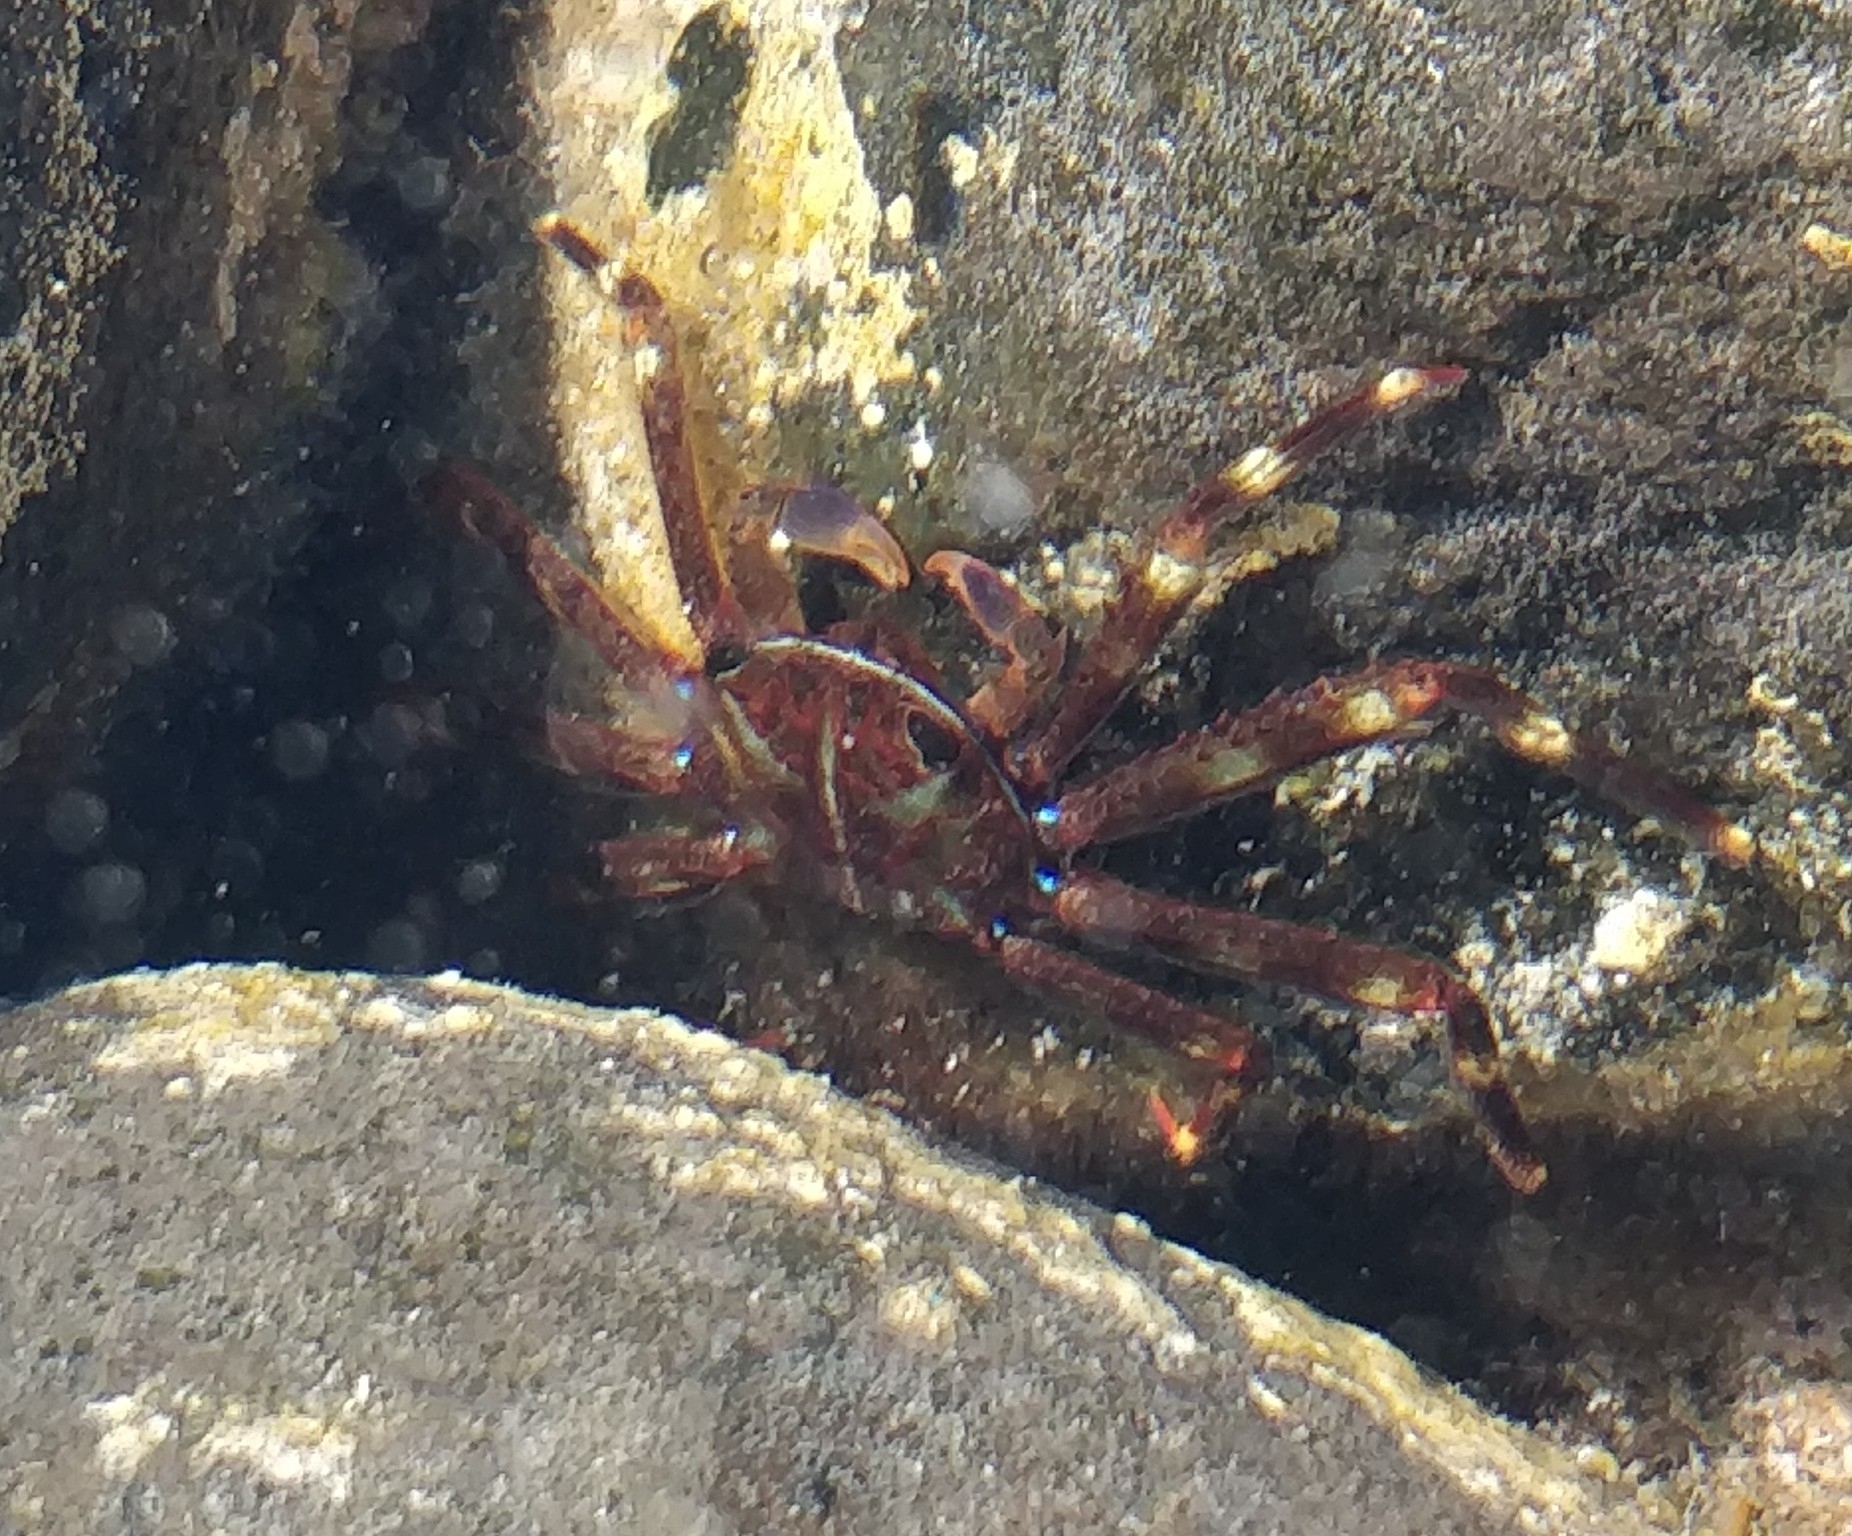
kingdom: Animalia
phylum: Arthropoda
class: Malacostraca
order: Decapoda
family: Percnidae
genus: Percnon
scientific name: Percnon gibbesi
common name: Nimble spray crab
